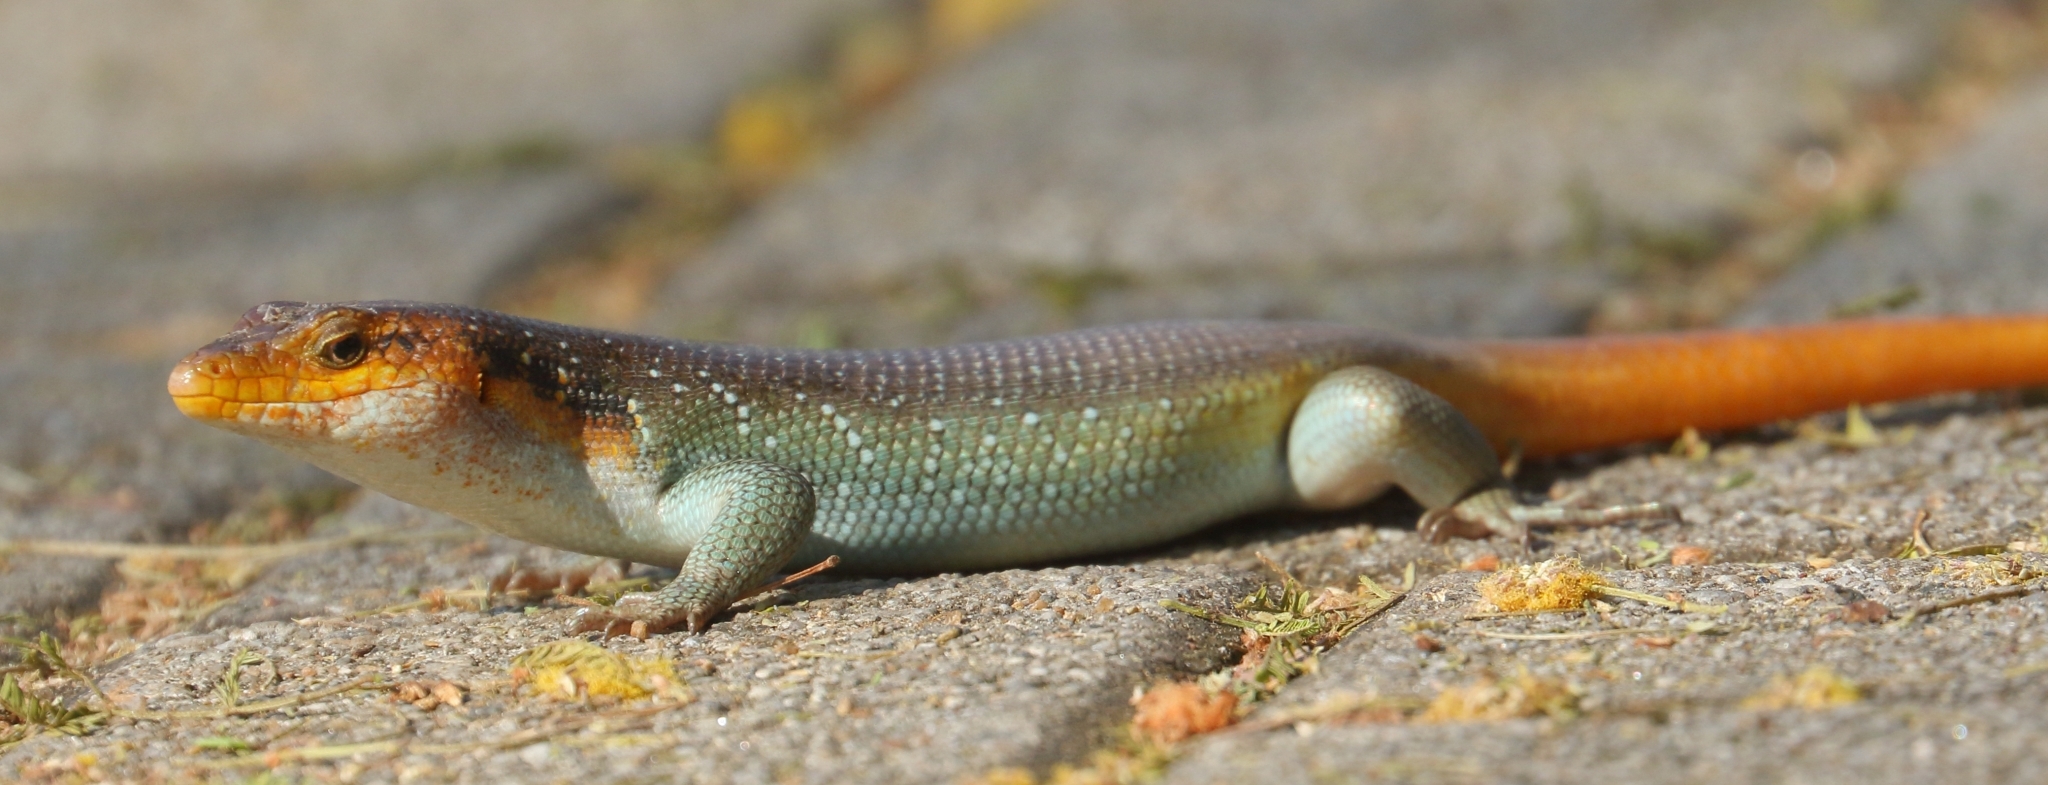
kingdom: Animalia
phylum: Chordata
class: Squamata
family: Scincidae
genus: Trachylepis
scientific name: Trachylepis margaritifera
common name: Rainbow skink
